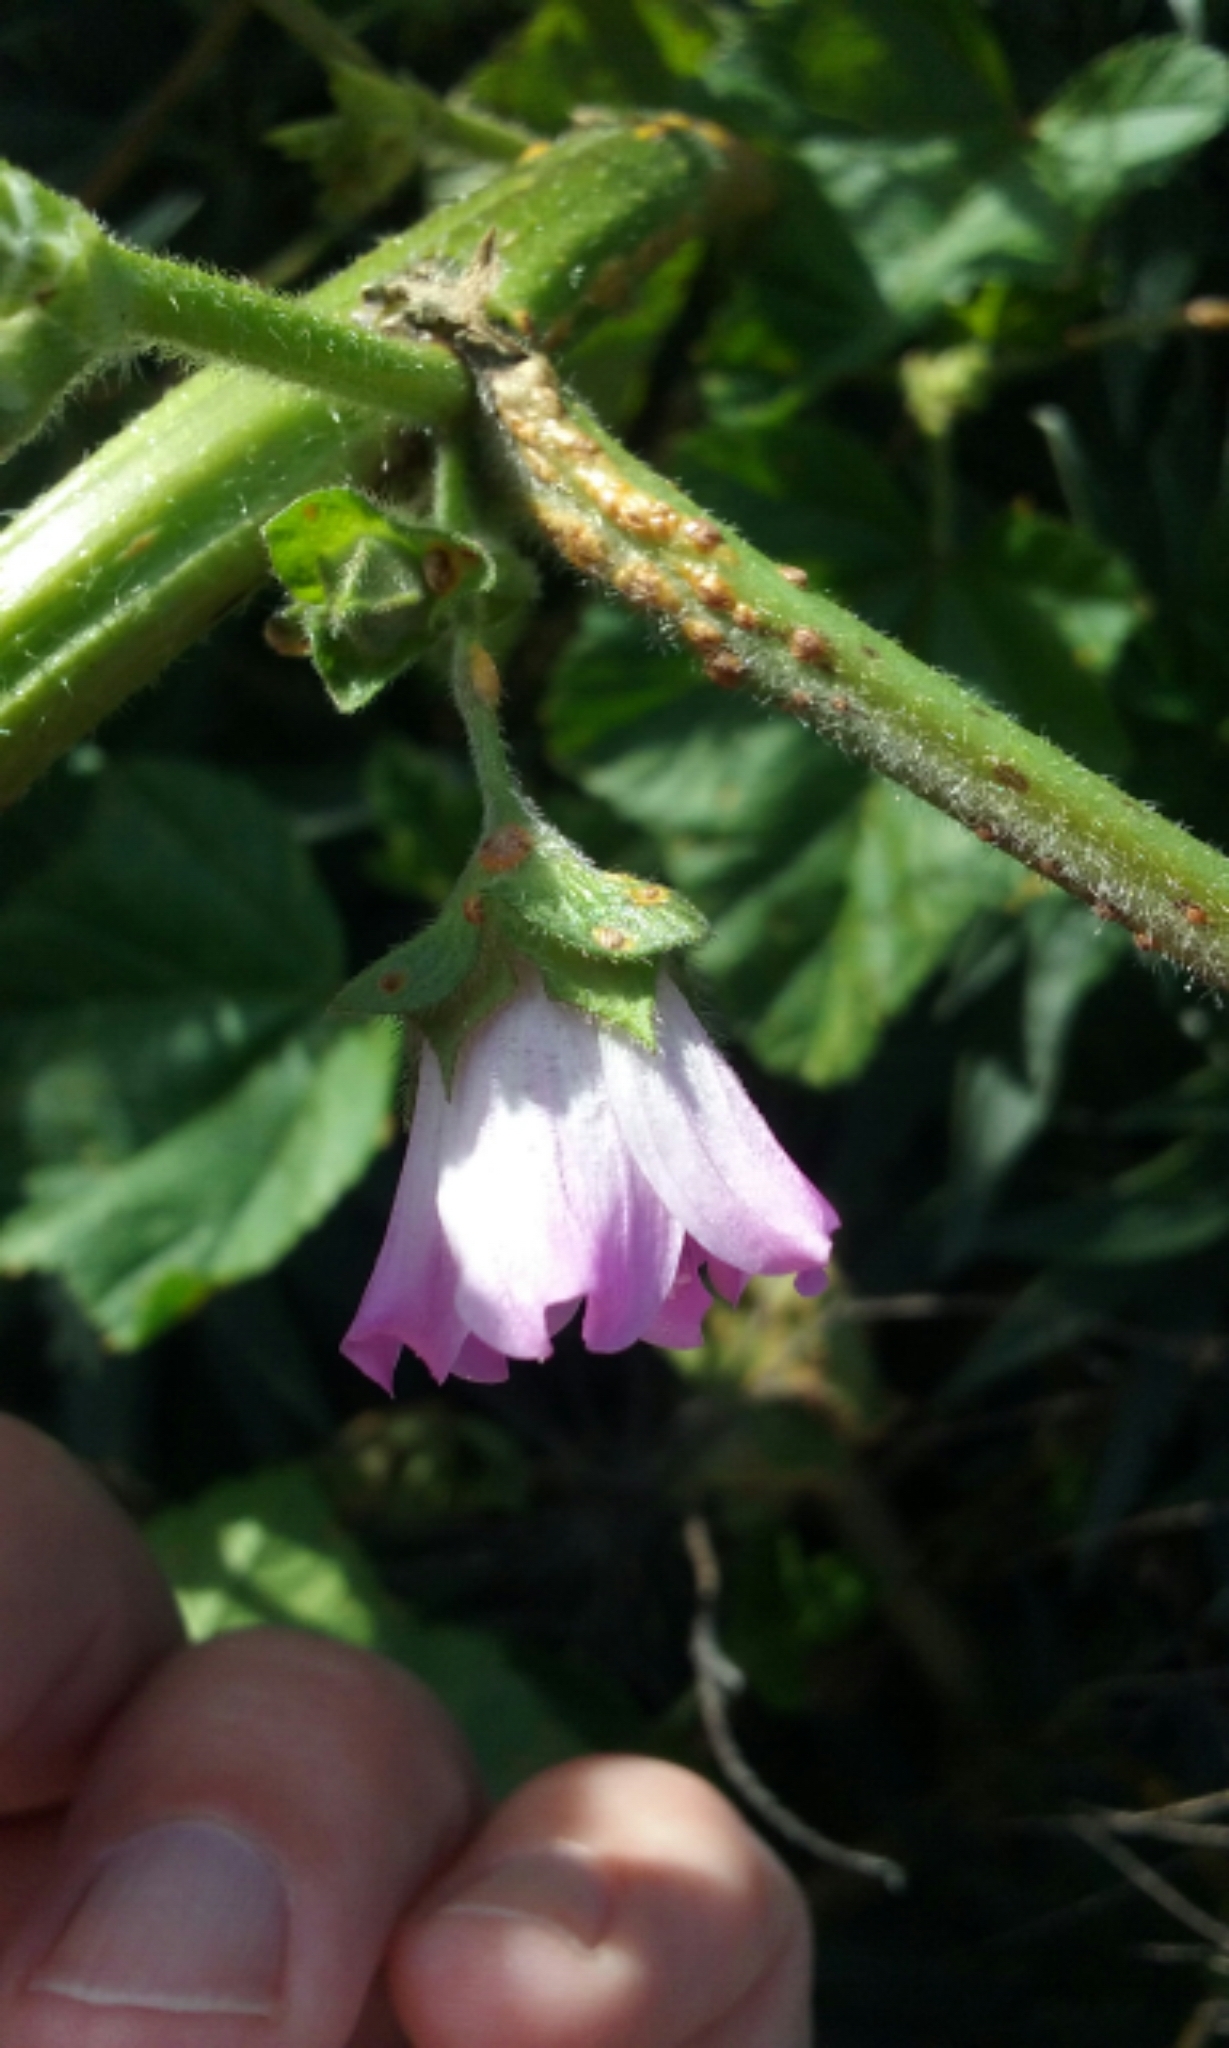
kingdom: Plantae
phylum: Tracheophyta
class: Magnoliopsida
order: Malvales
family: Malvaceae
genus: Malva
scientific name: Malva multiflora
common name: Cheeseweed
